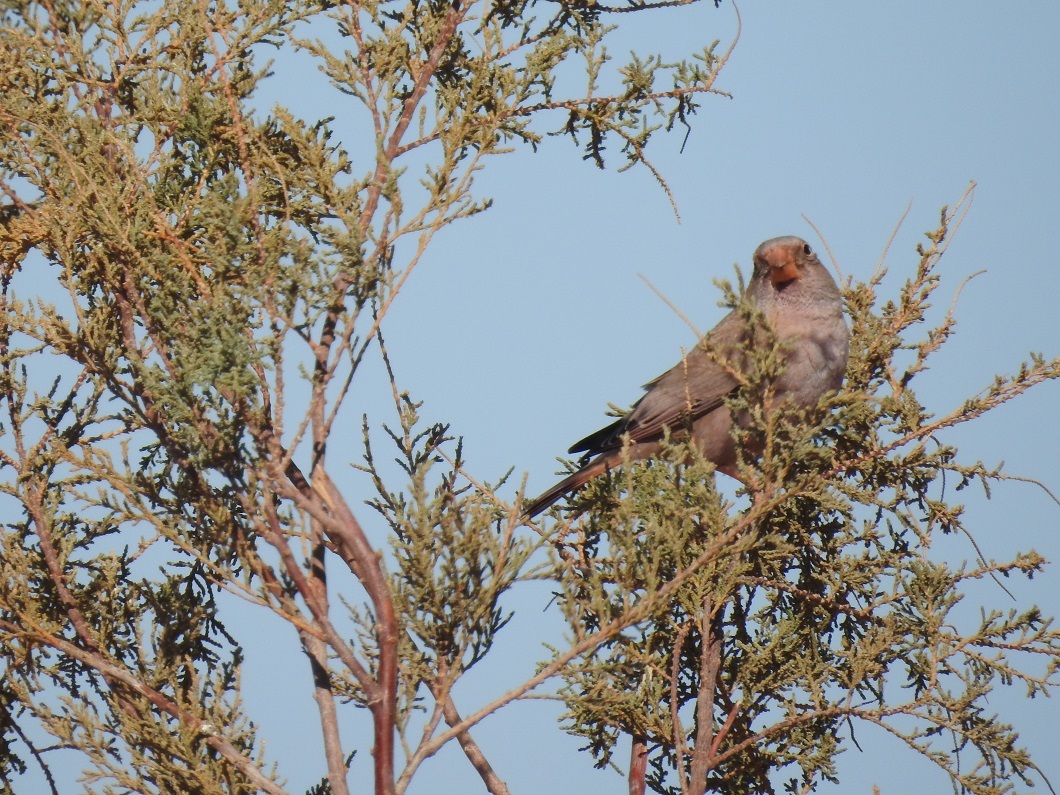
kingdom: Animalia
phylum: Chordata
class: Aves
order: Passeriformes
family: Fringillidae
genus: Bucanetes
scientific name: Bucanetes githagineus
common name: Trumpeter finch
